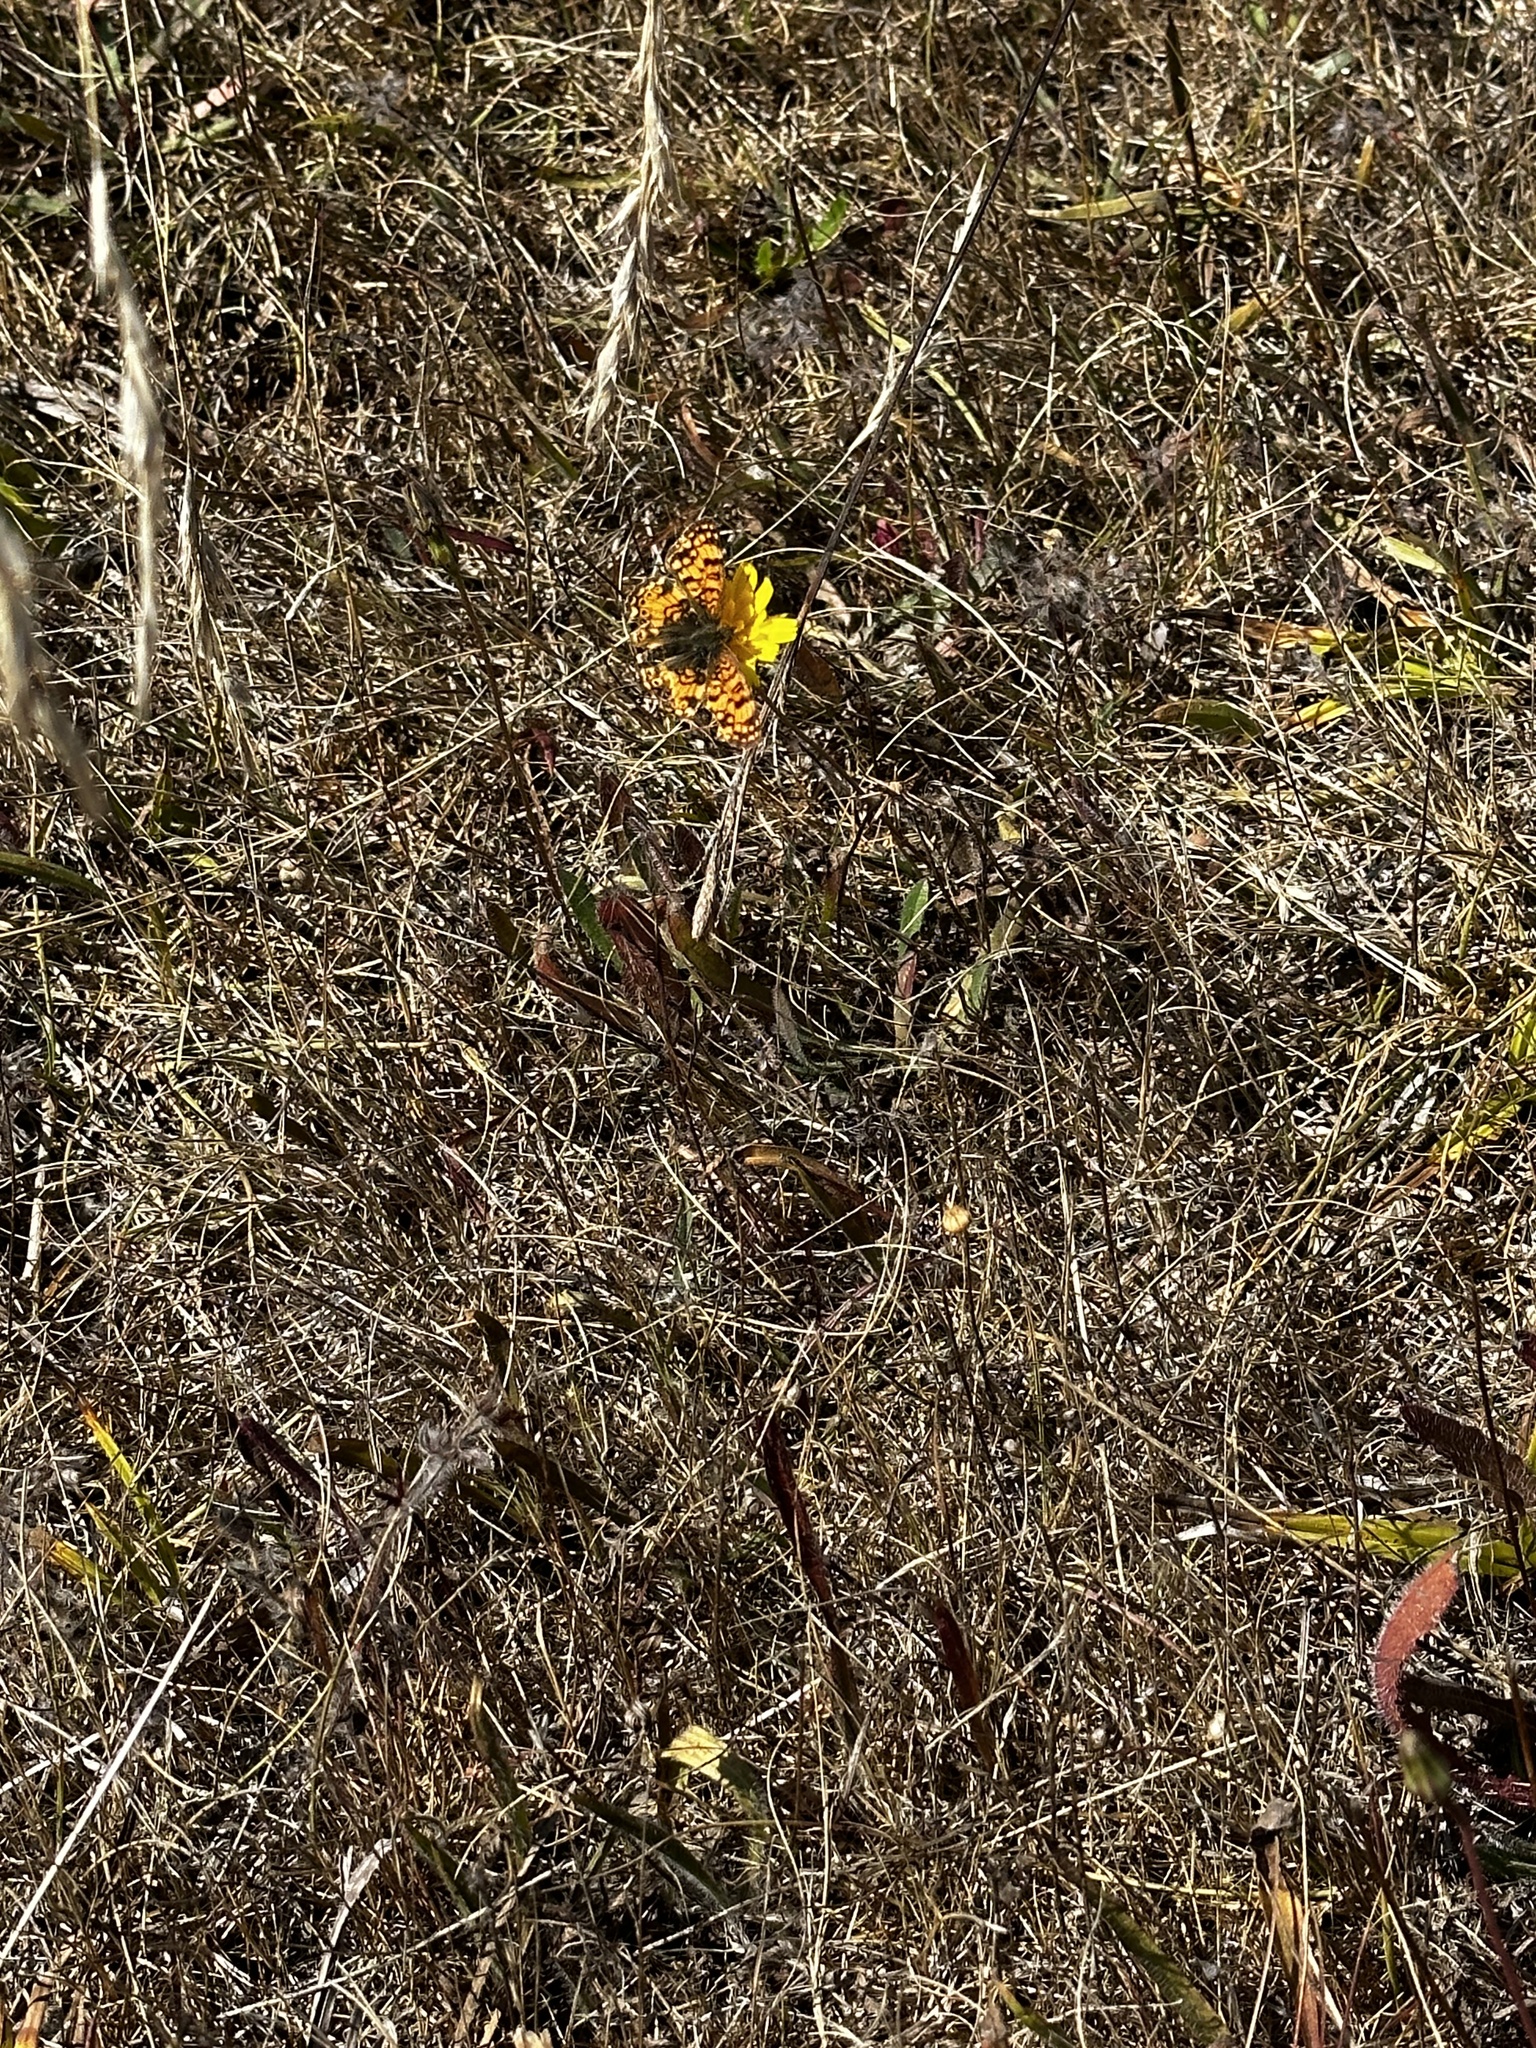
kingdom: Animalia
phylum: Arthropoda
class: Insecta
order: Lepidoptera
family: Nymphalidae
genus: Eresia
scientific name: Eresia aveyrona
